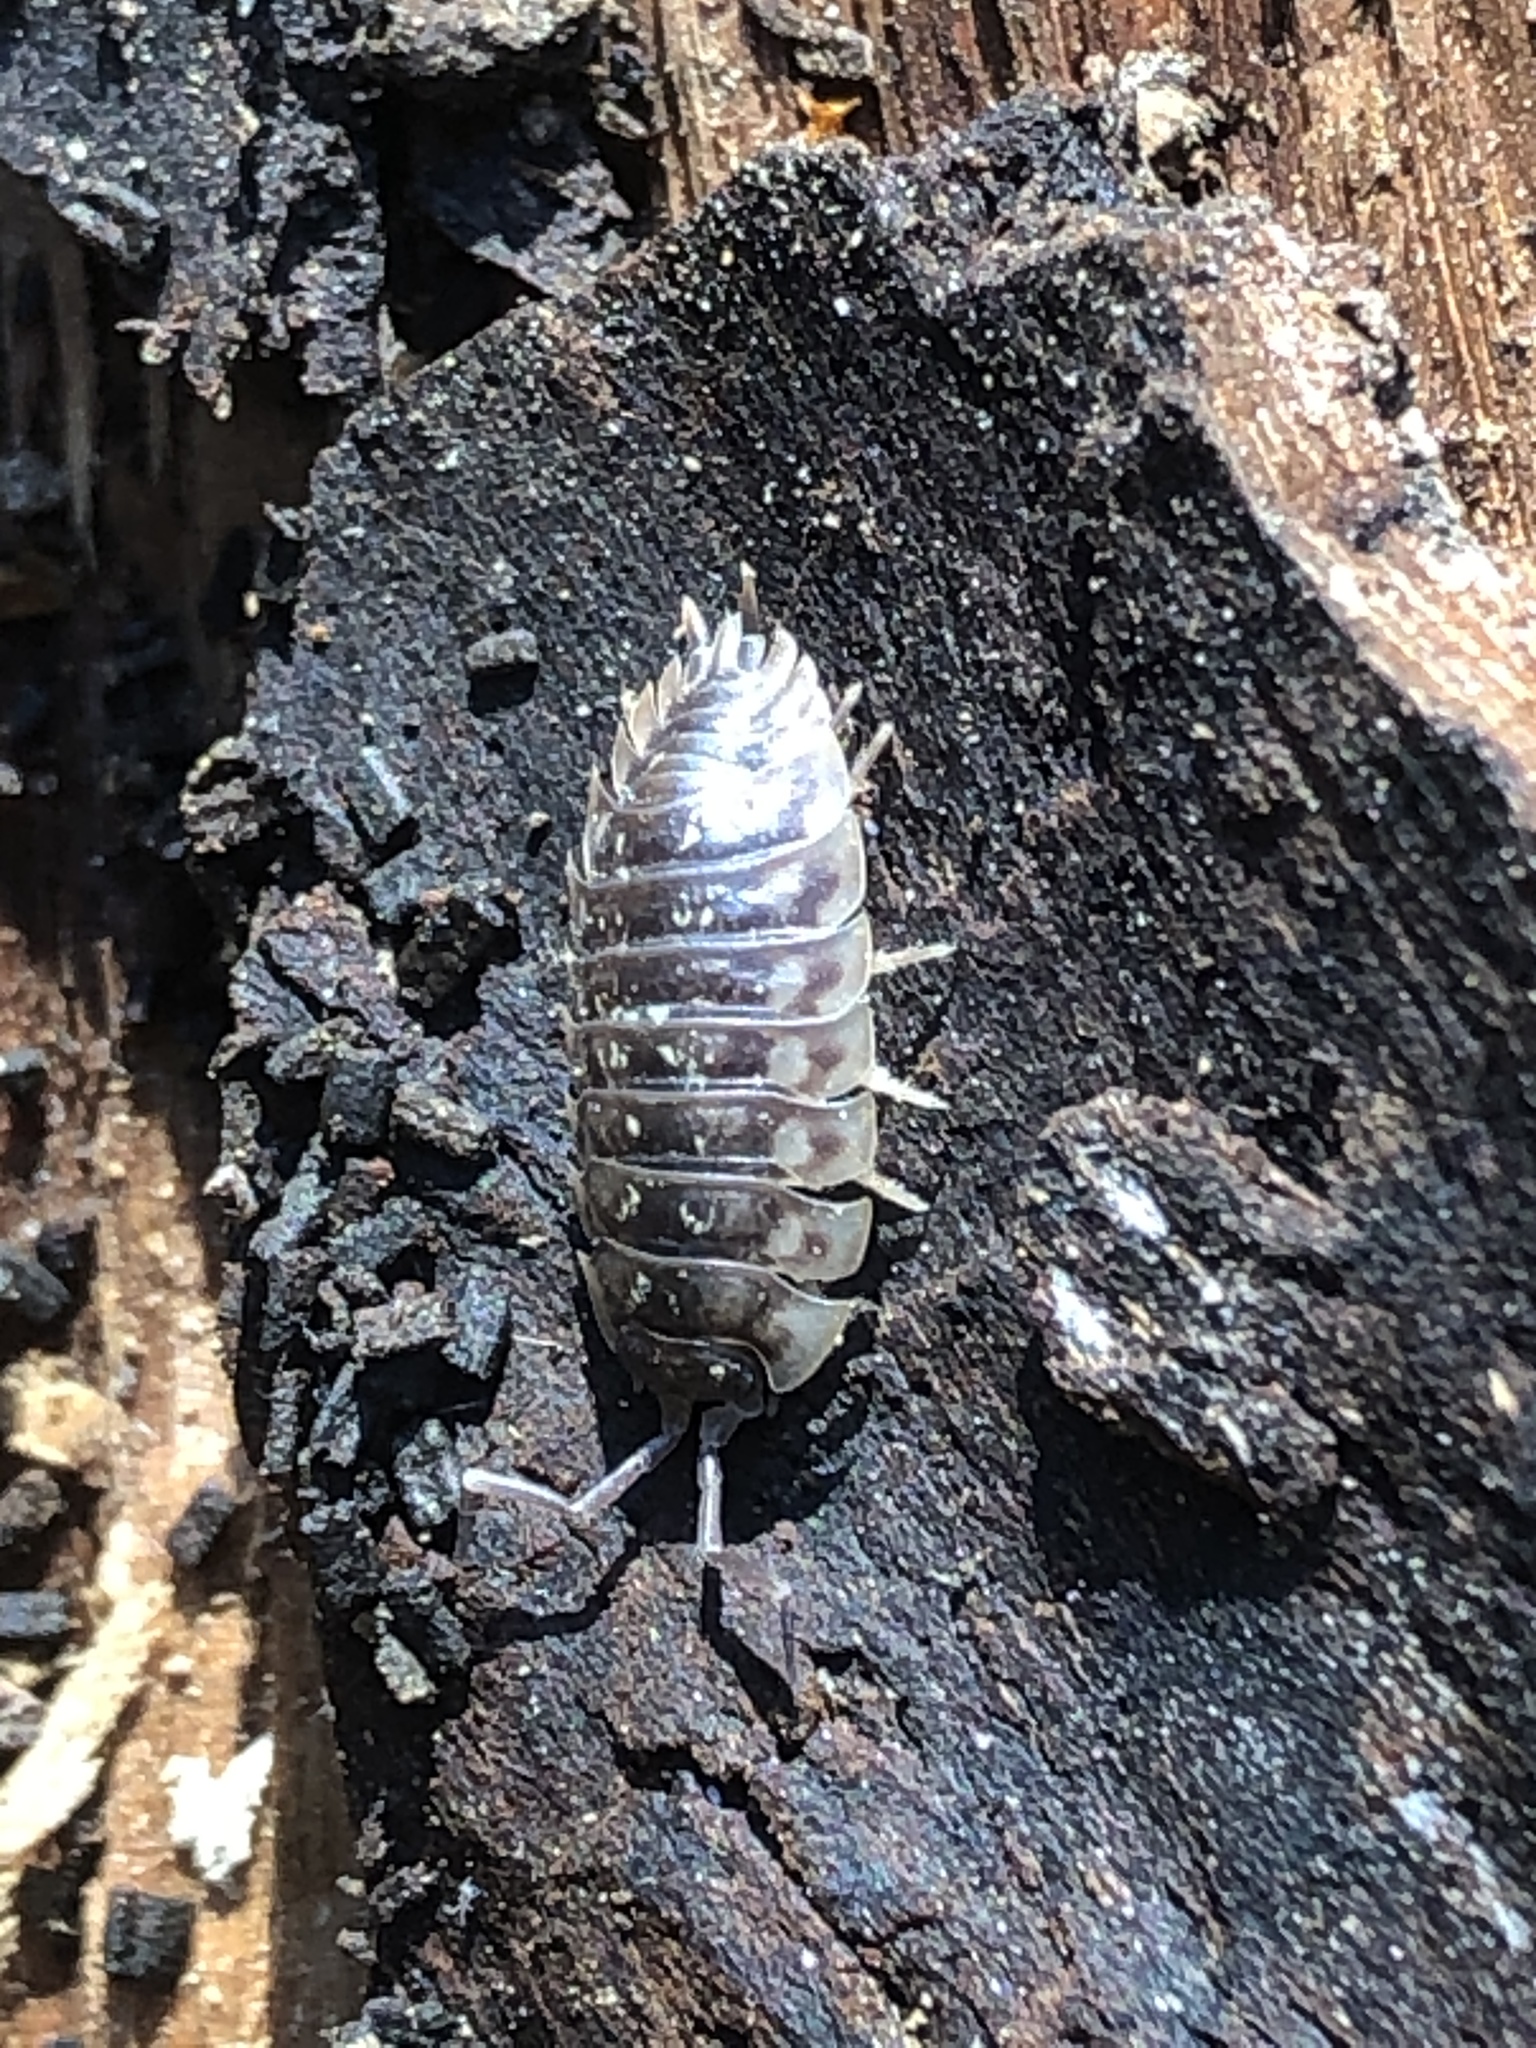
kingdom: Animalia
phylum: Arthropoda
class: Malacostraca
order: Isopoda
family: Oniscidae
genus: Oniscus
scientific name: Oniscus asellus
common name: Common shiny woodlouse
